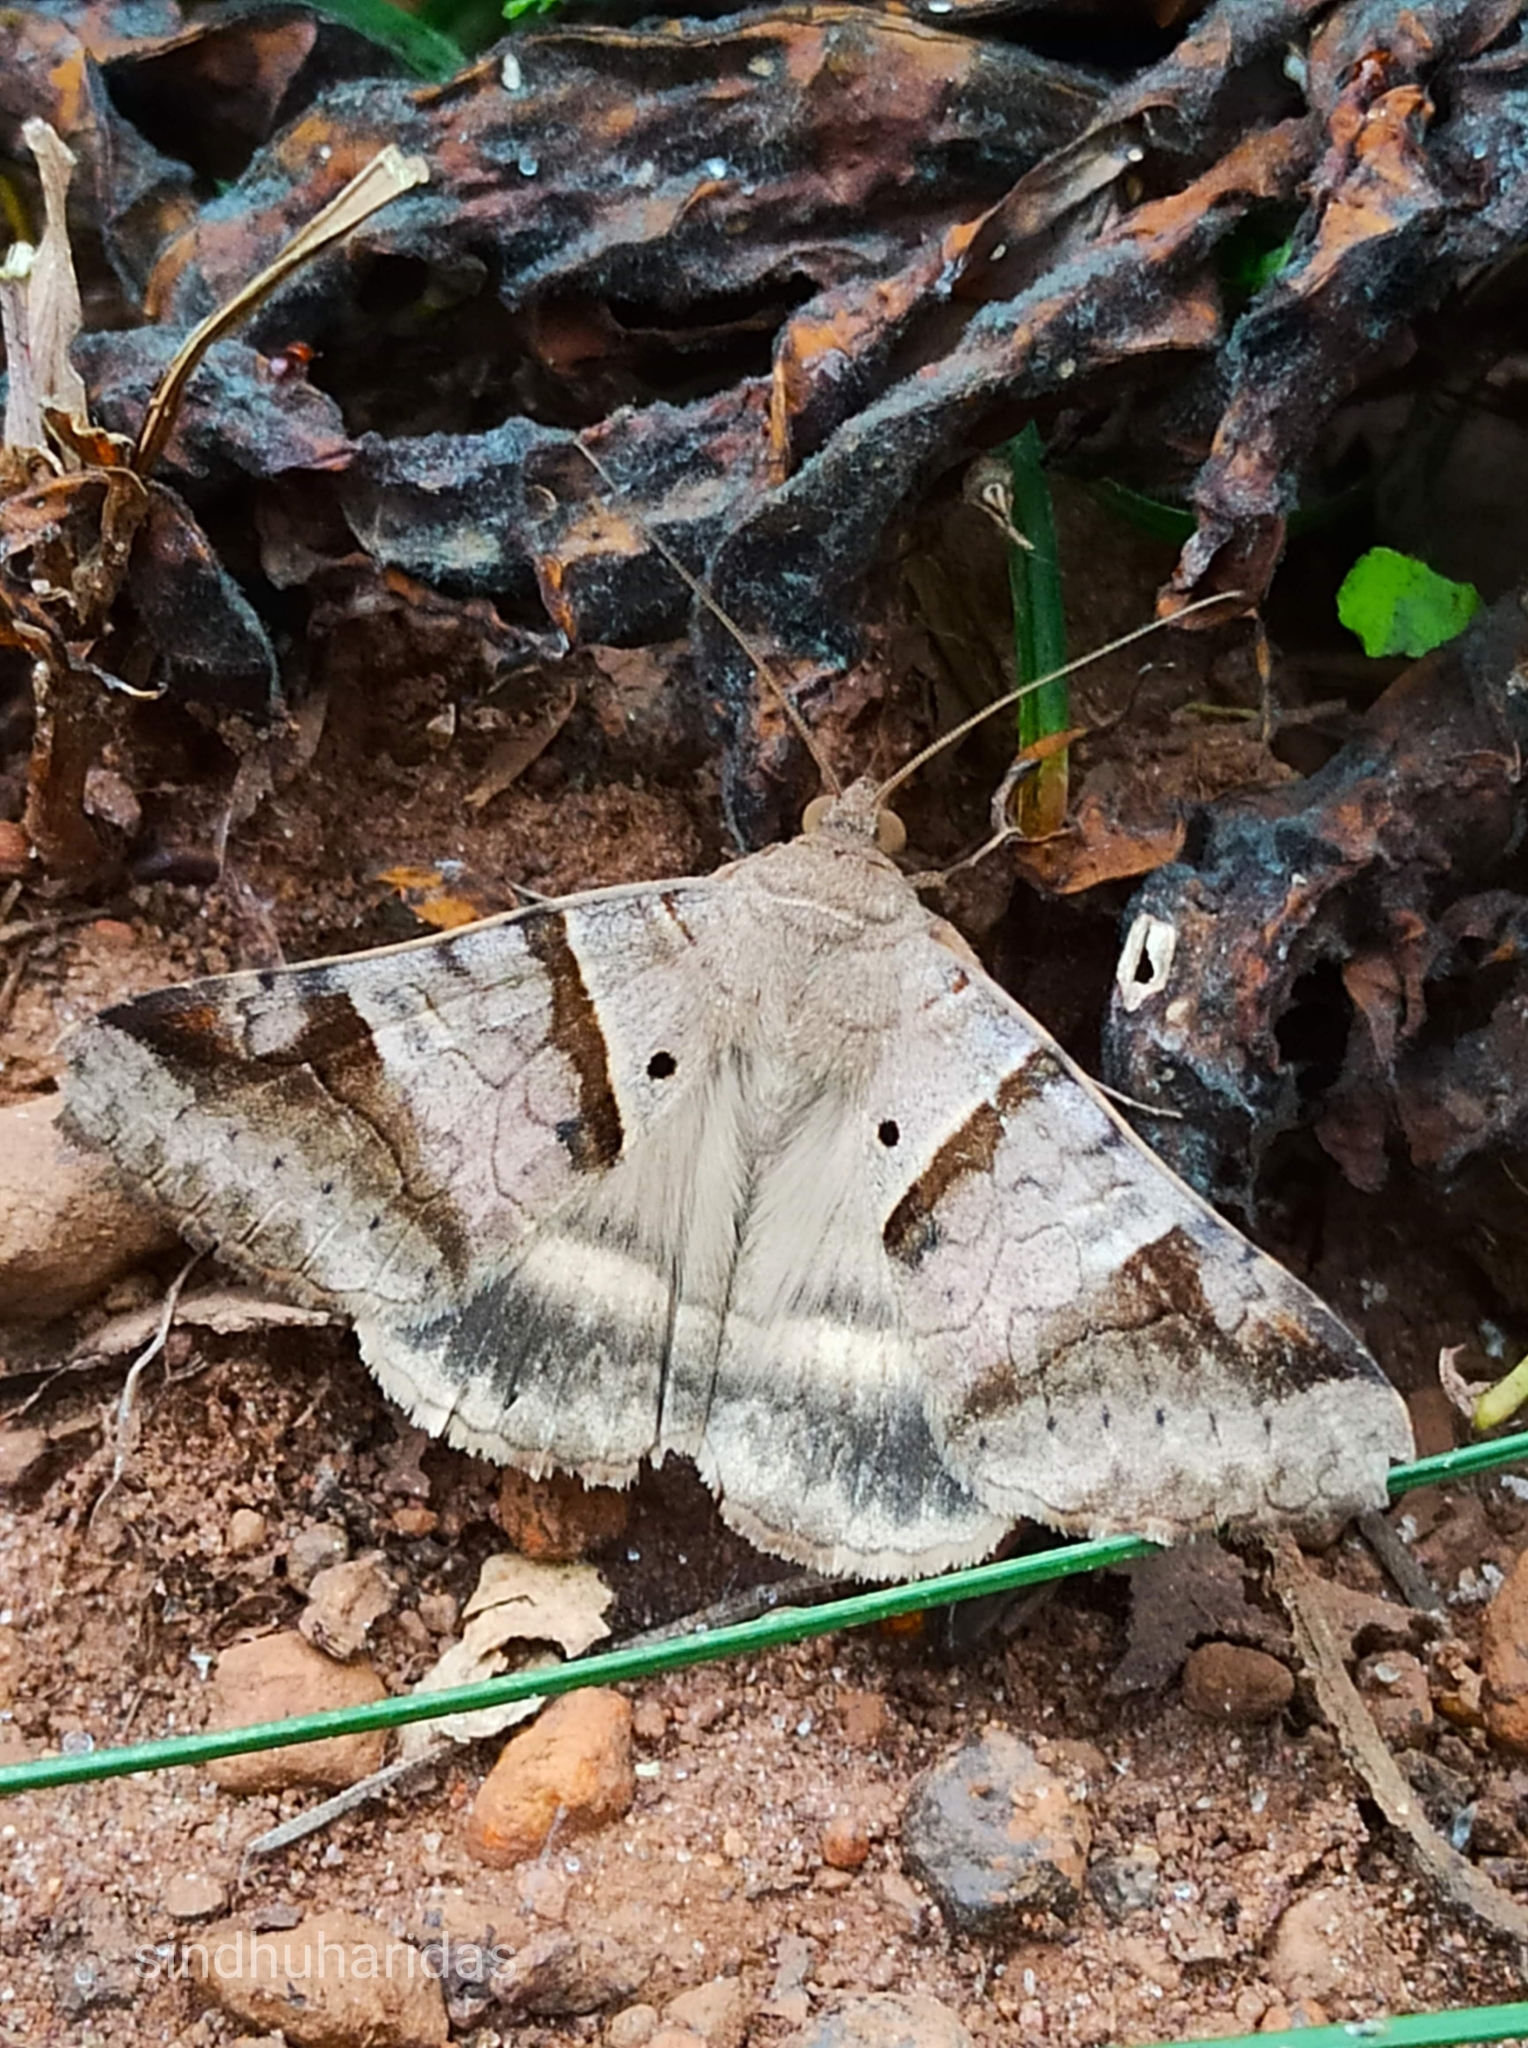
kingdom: Animalia
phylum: Arthropoda
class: Insecta
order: Lepidoptera
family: Erebidae
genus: Mocis
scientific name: Mocis undata
